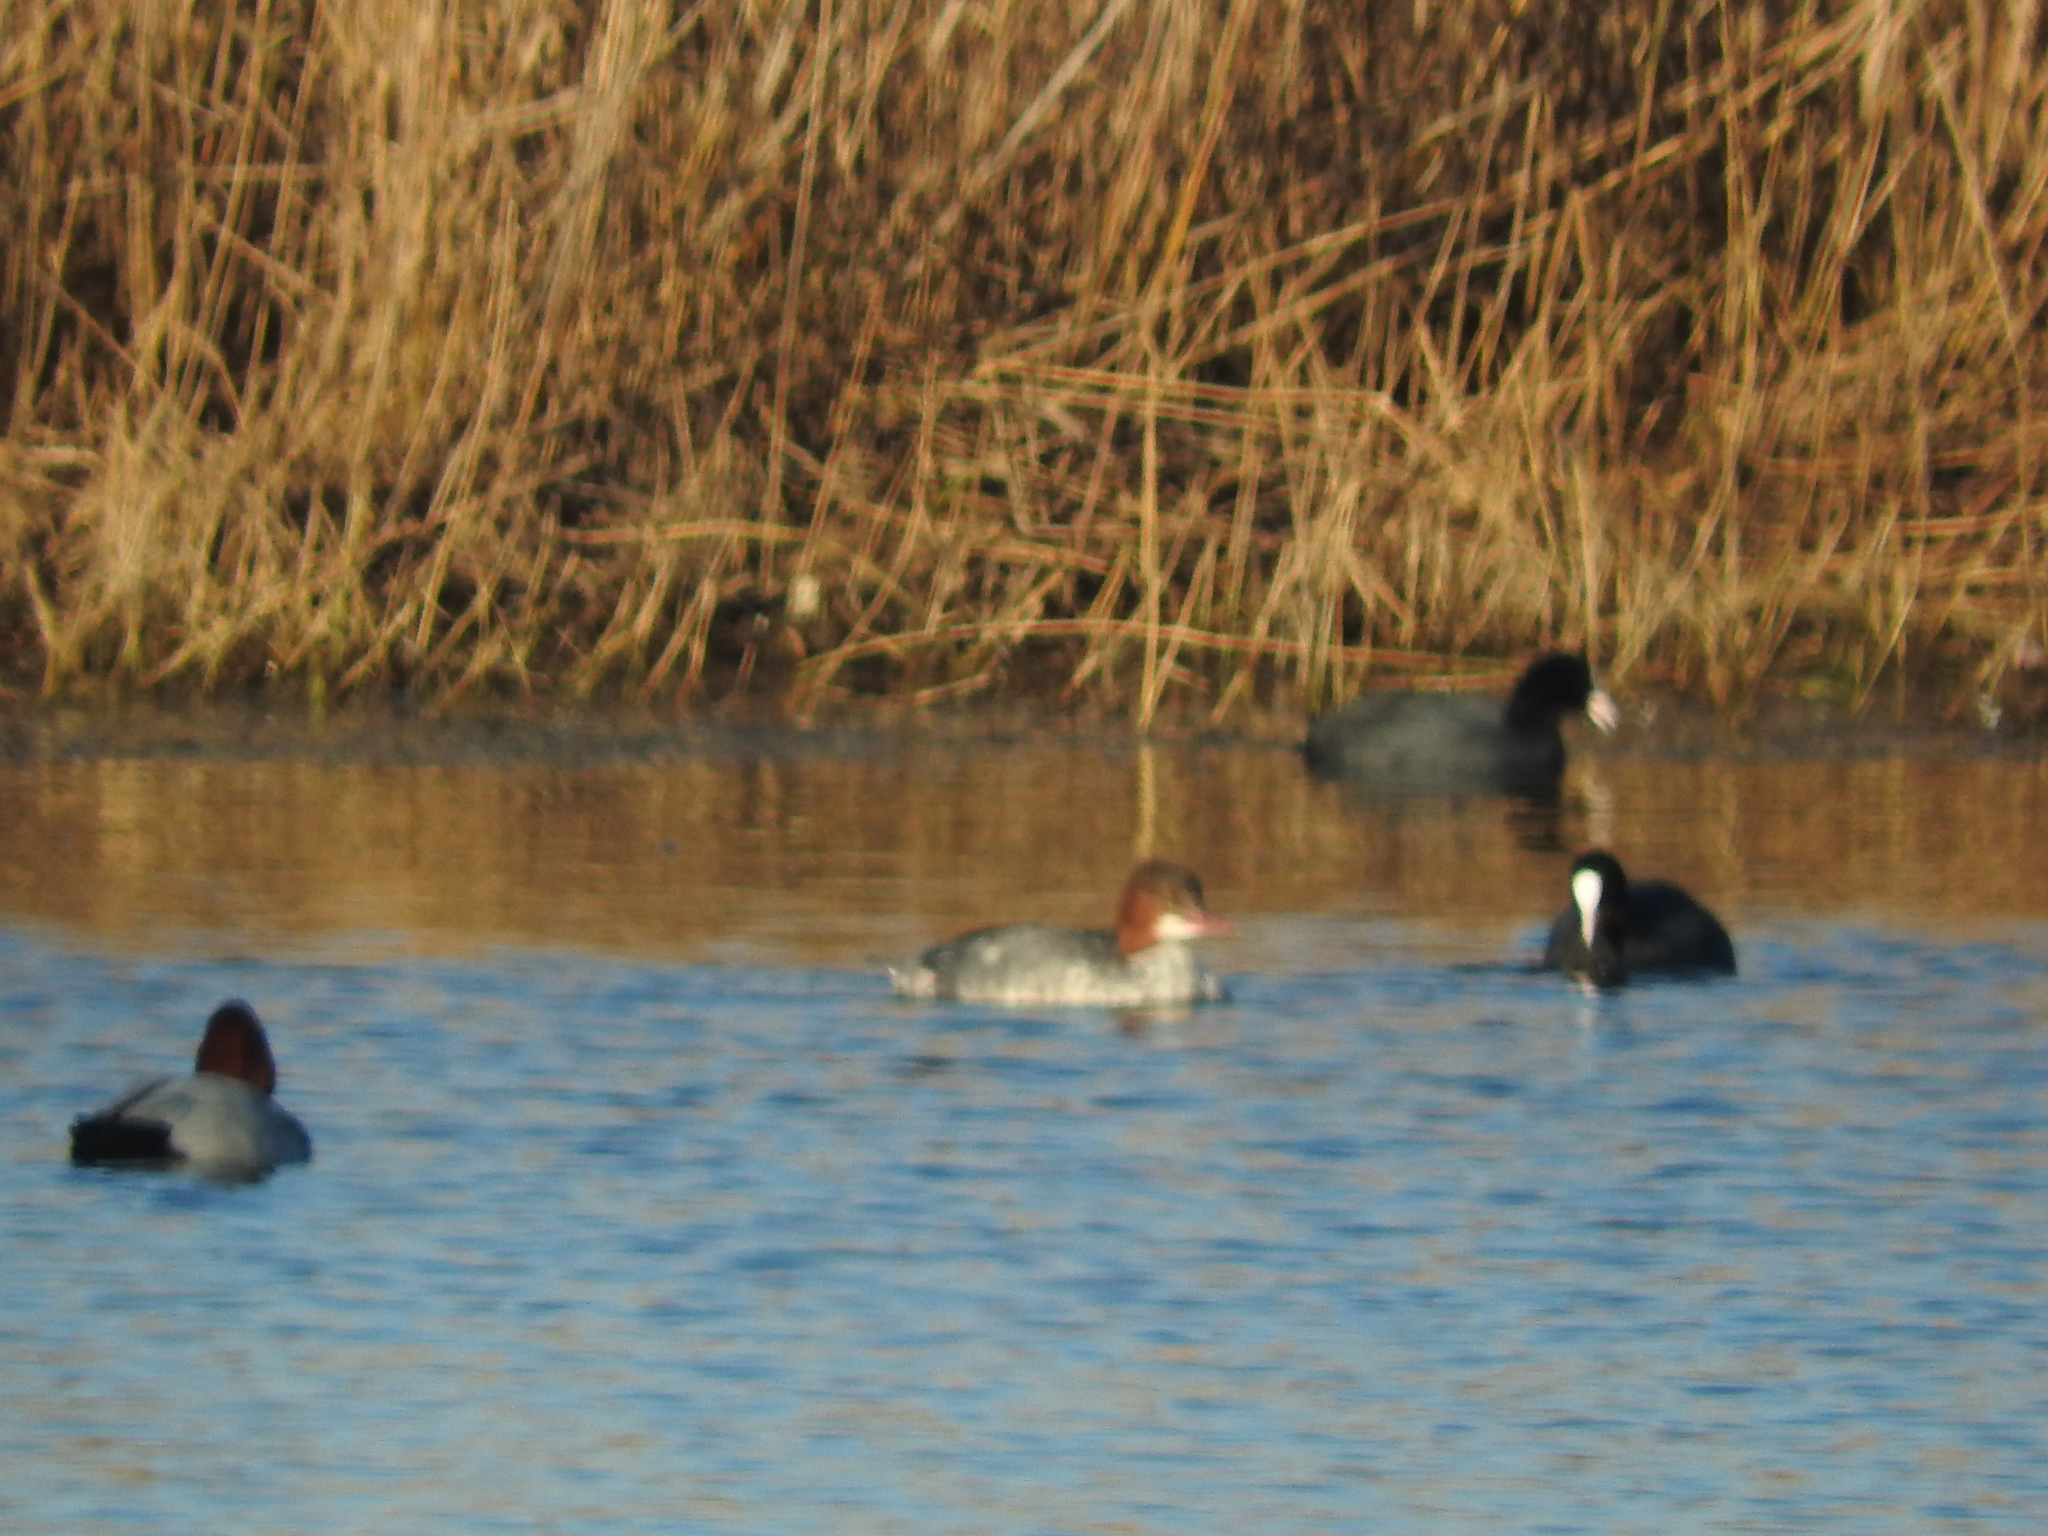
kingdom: Animalia
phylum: Chordata
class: Aves
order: Anseriformes
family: Anatidae
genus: Mergus
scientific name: Mergus merganser
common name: Common merganser
